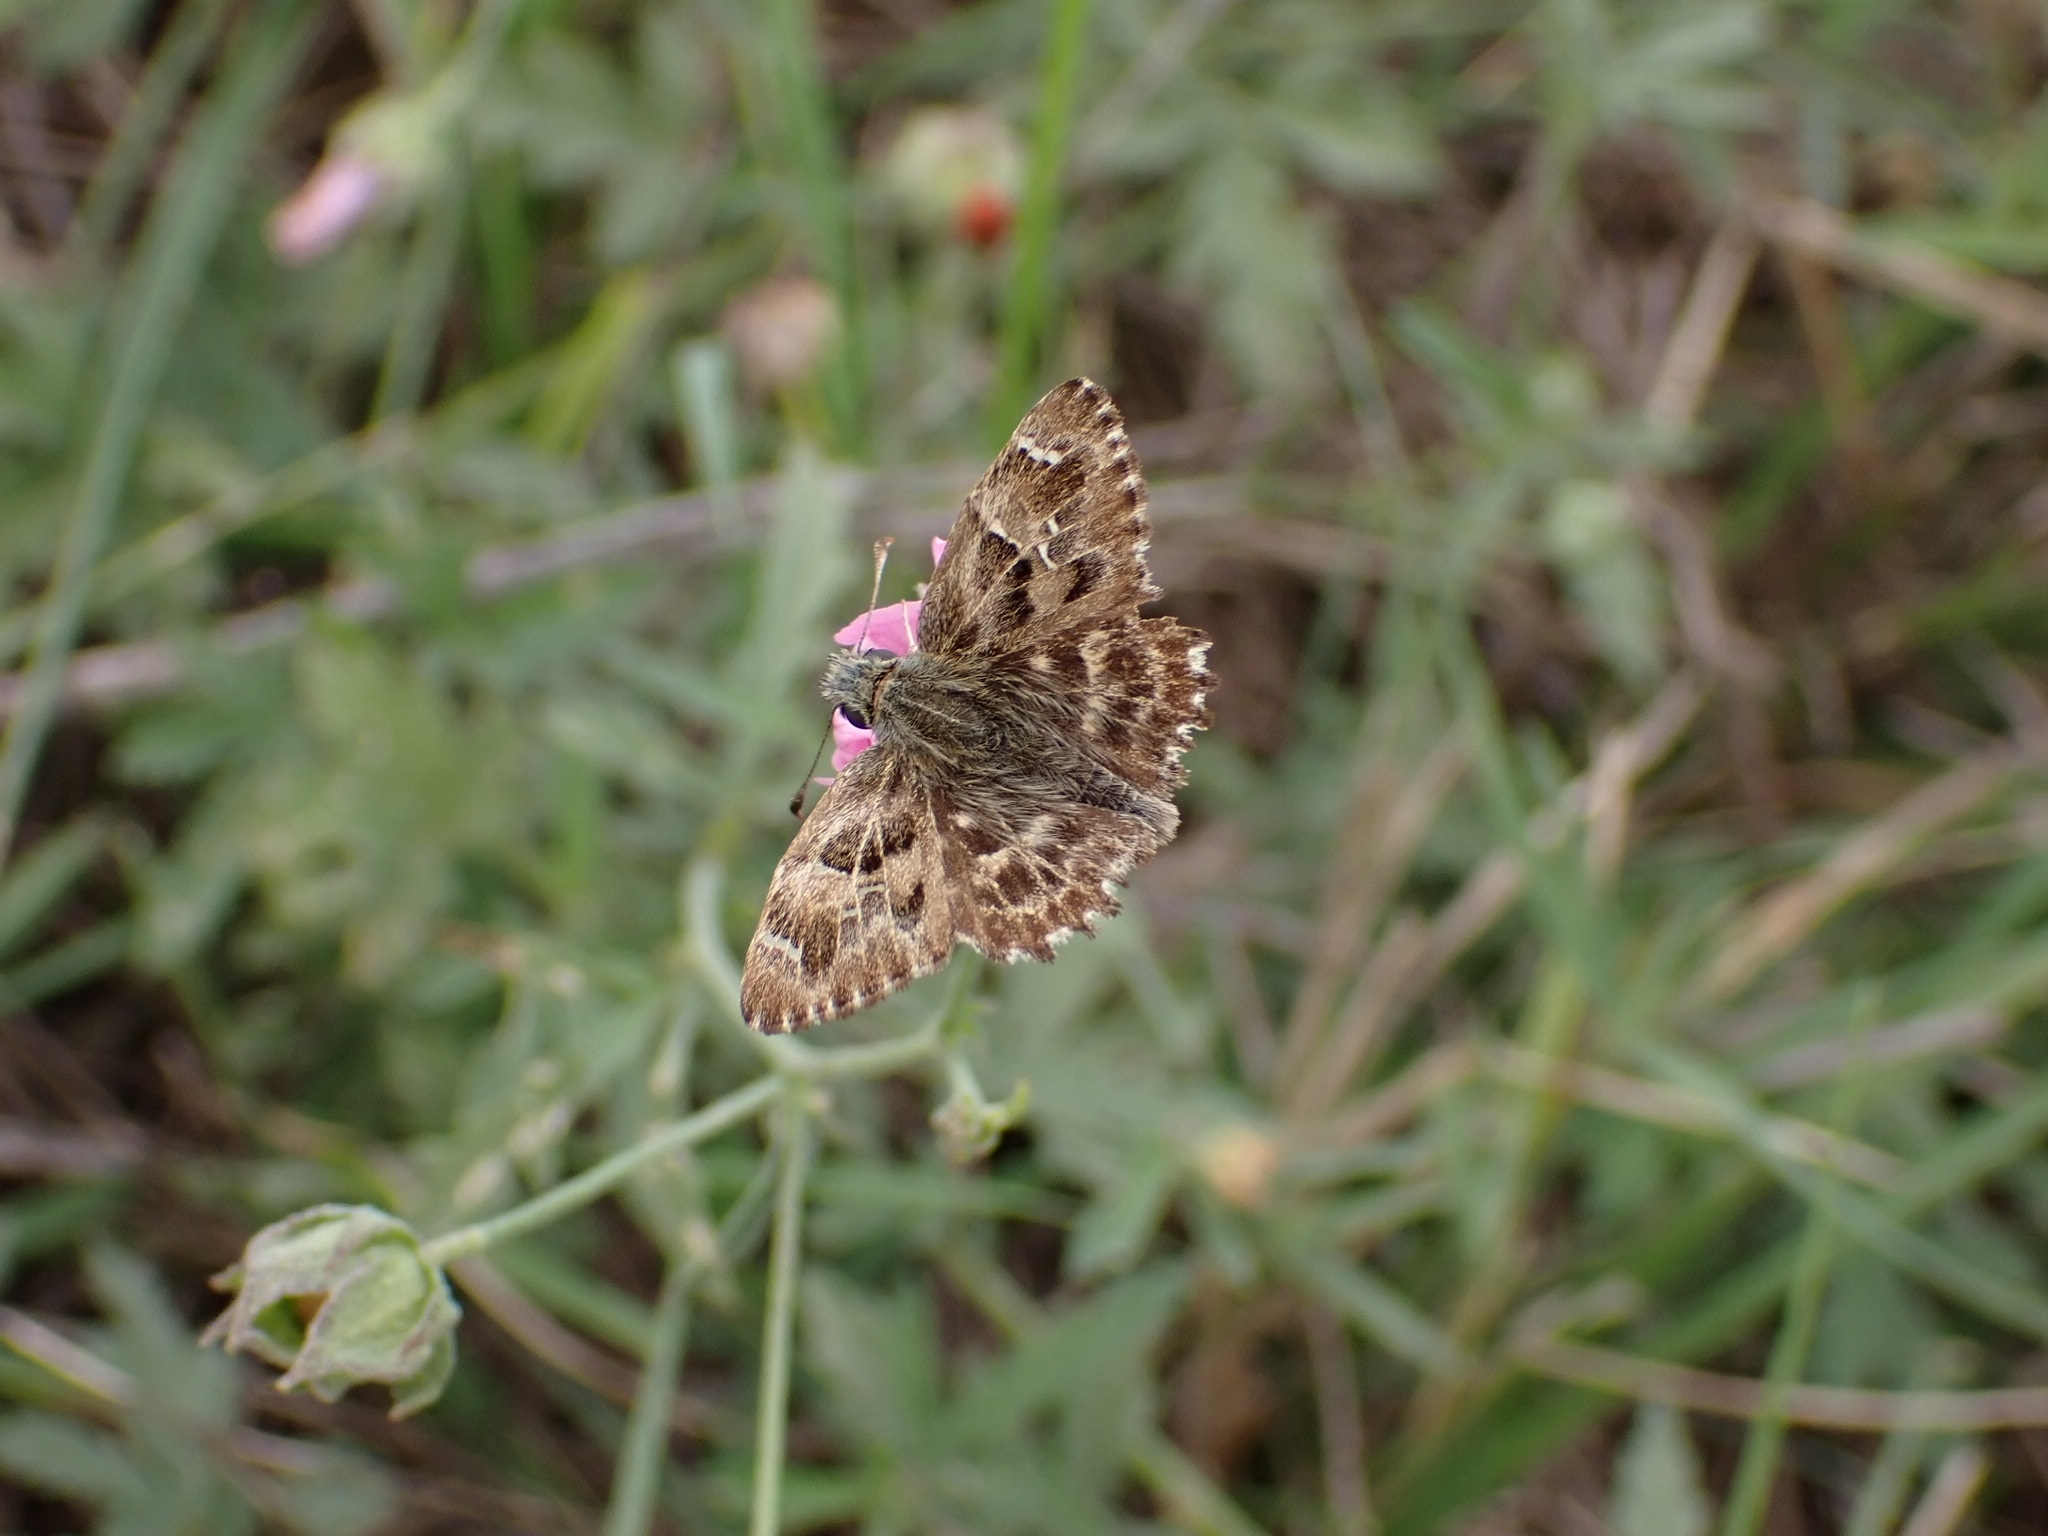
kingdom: Animalia
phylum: Arthropoda
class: Insecta
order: Lepidoptera
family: Hesperiidae
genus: Carcharodus
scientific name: Carcharodus alceae
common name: Mallow skipper
